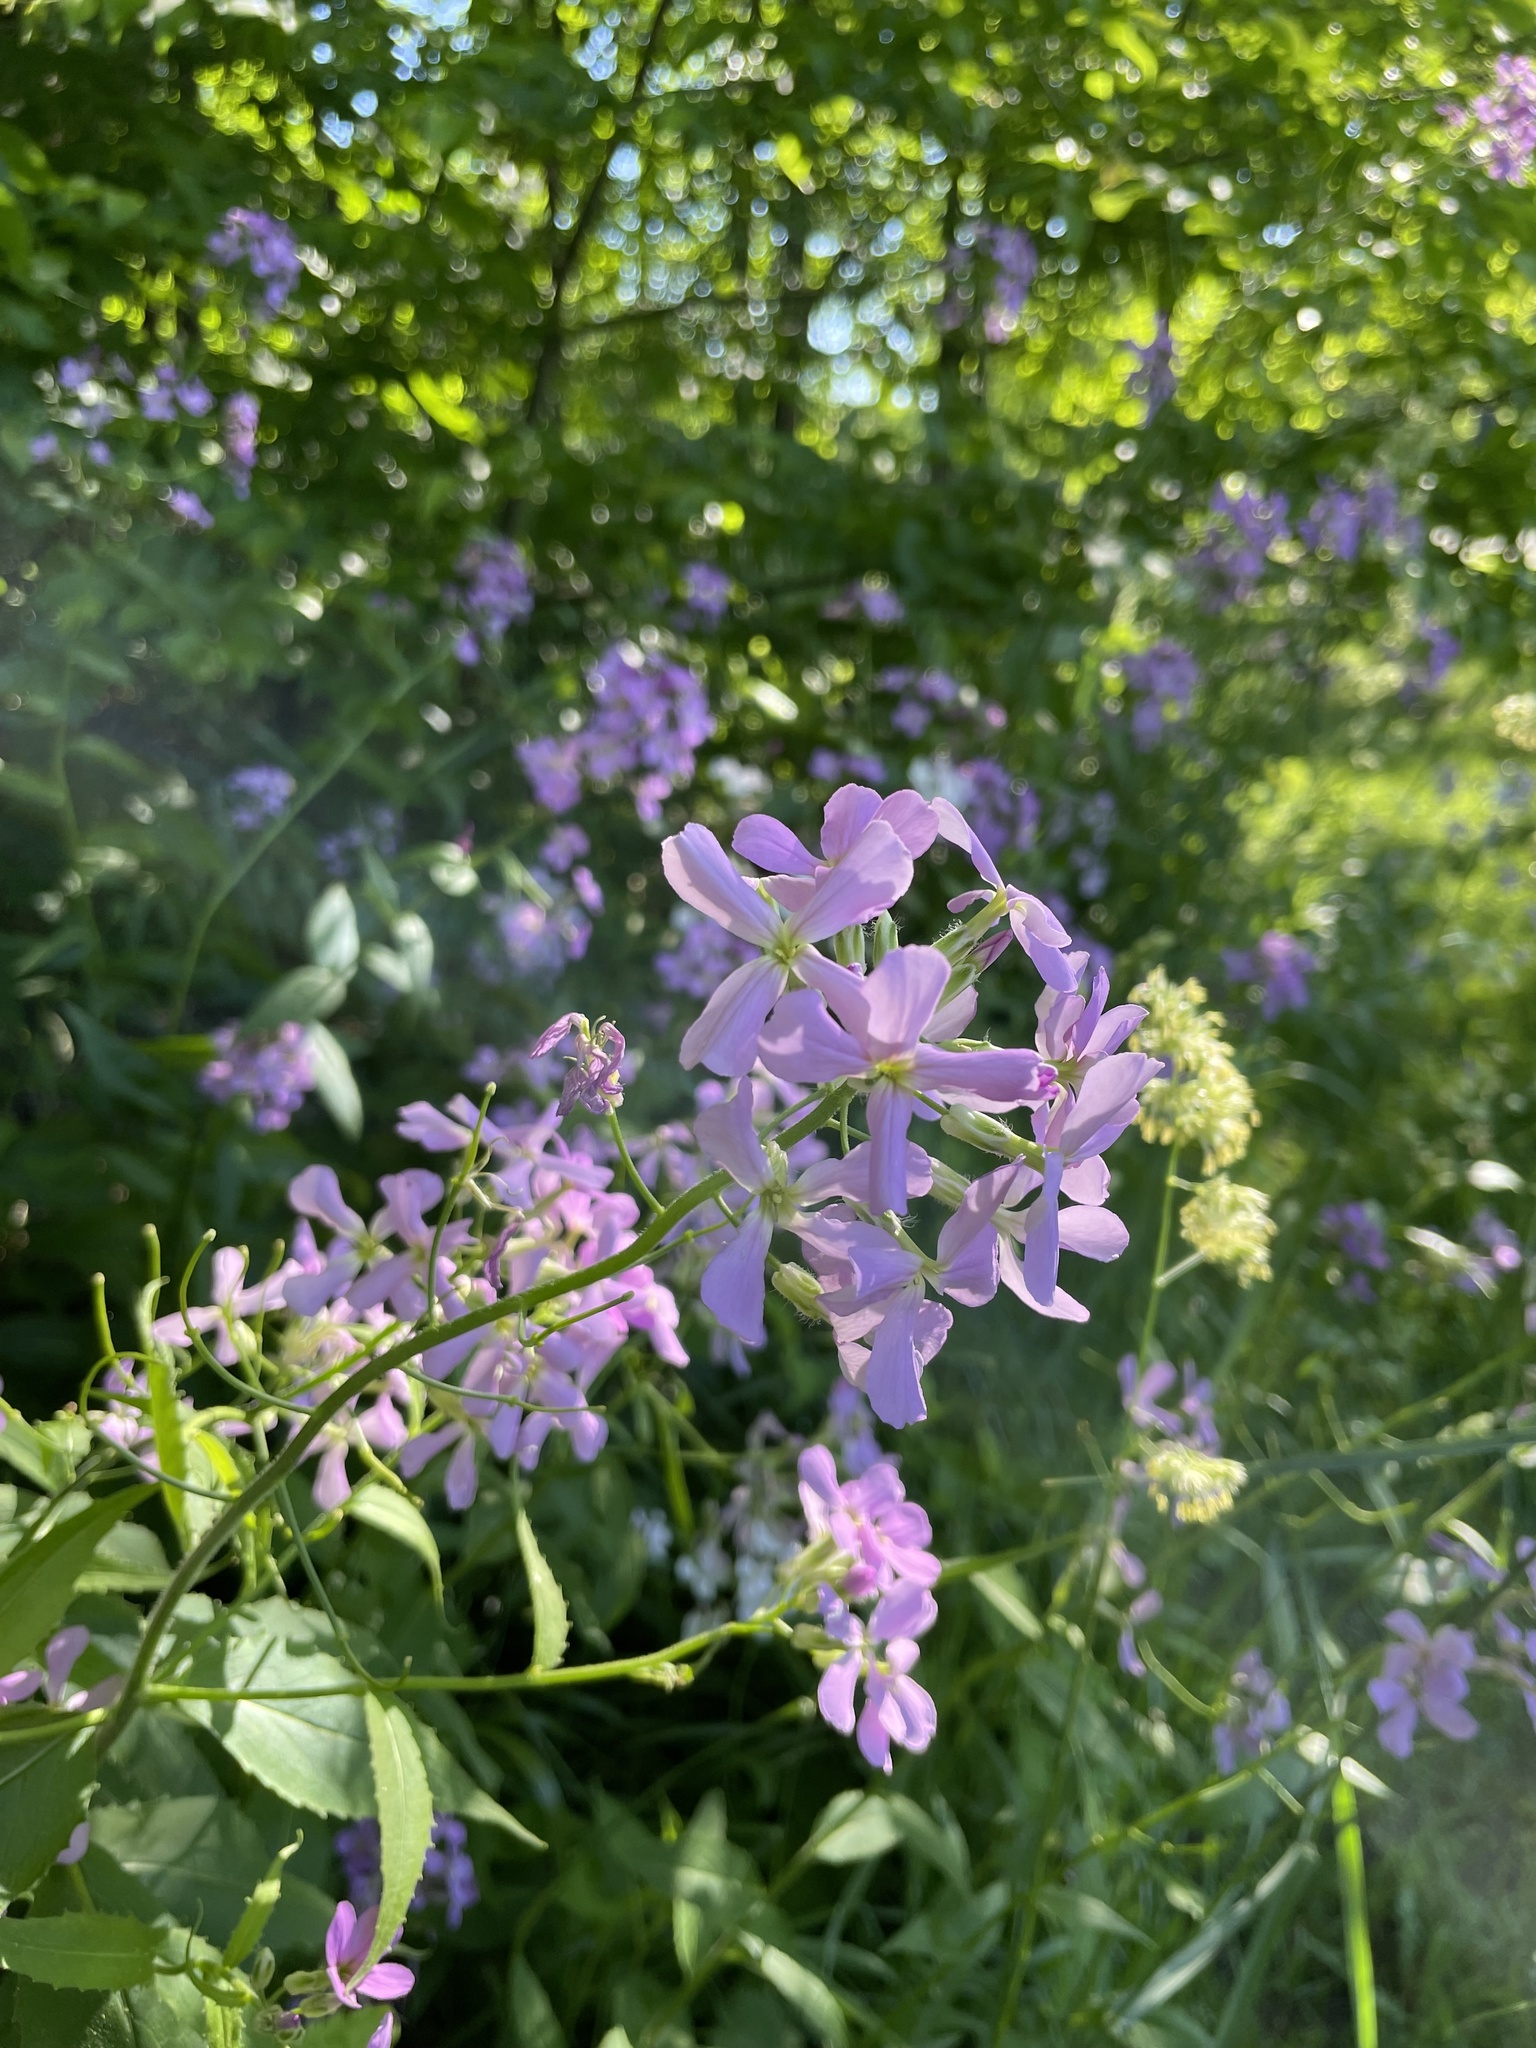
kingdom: Plantae
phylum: Tracheophyta
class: Magnoliopsida
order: Brassicales
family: Brassicaceae
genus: Hesperis
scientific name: Hesperis matronalis
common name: Dame's-violet
